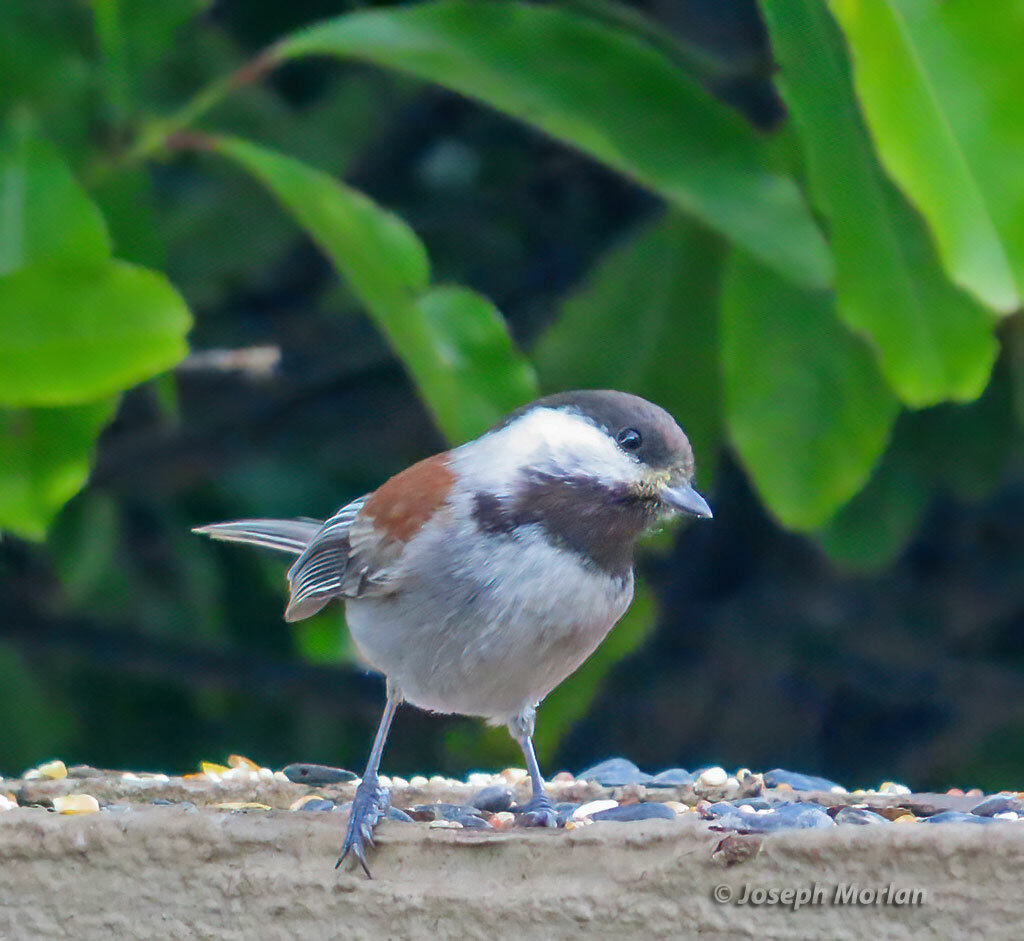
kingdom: Animalia
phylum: Chordata
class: Aves
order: Passeriformes
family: Paridae
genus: Poecile
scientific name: Poecile rufescens
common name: Chestnut-backed chickadee
